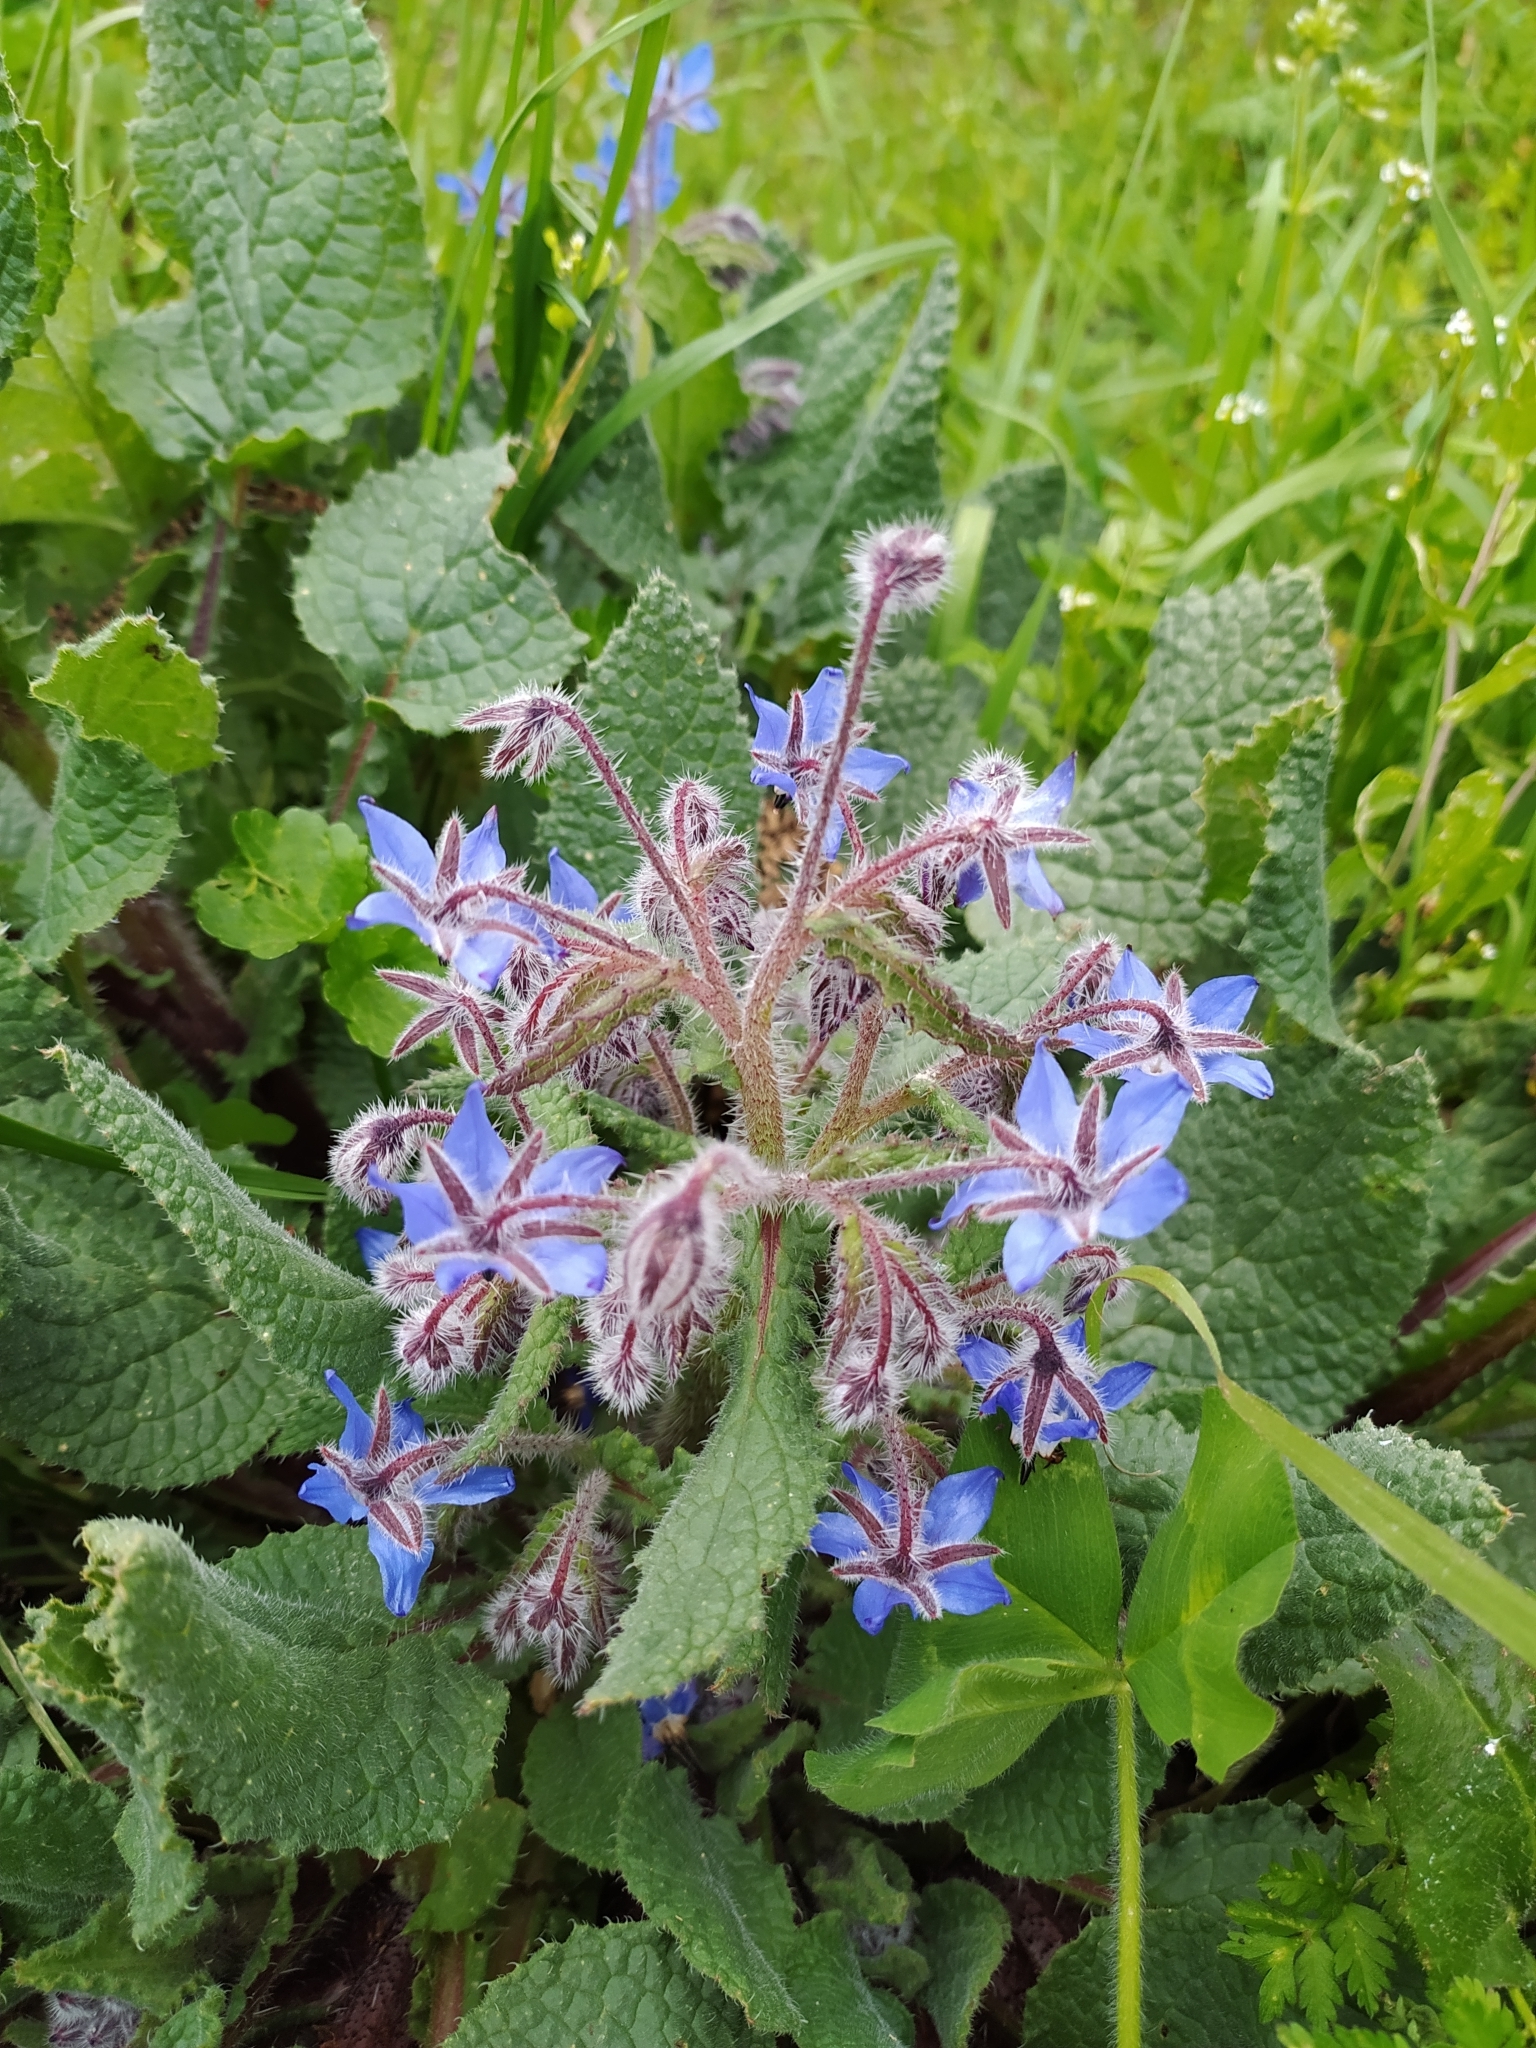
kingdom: Plantae
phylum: Tracheophyta
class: Magnoliopsida
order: Boraginales
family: Boraginaceae
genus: Borago
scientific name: Borago officinalis
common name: Borage
